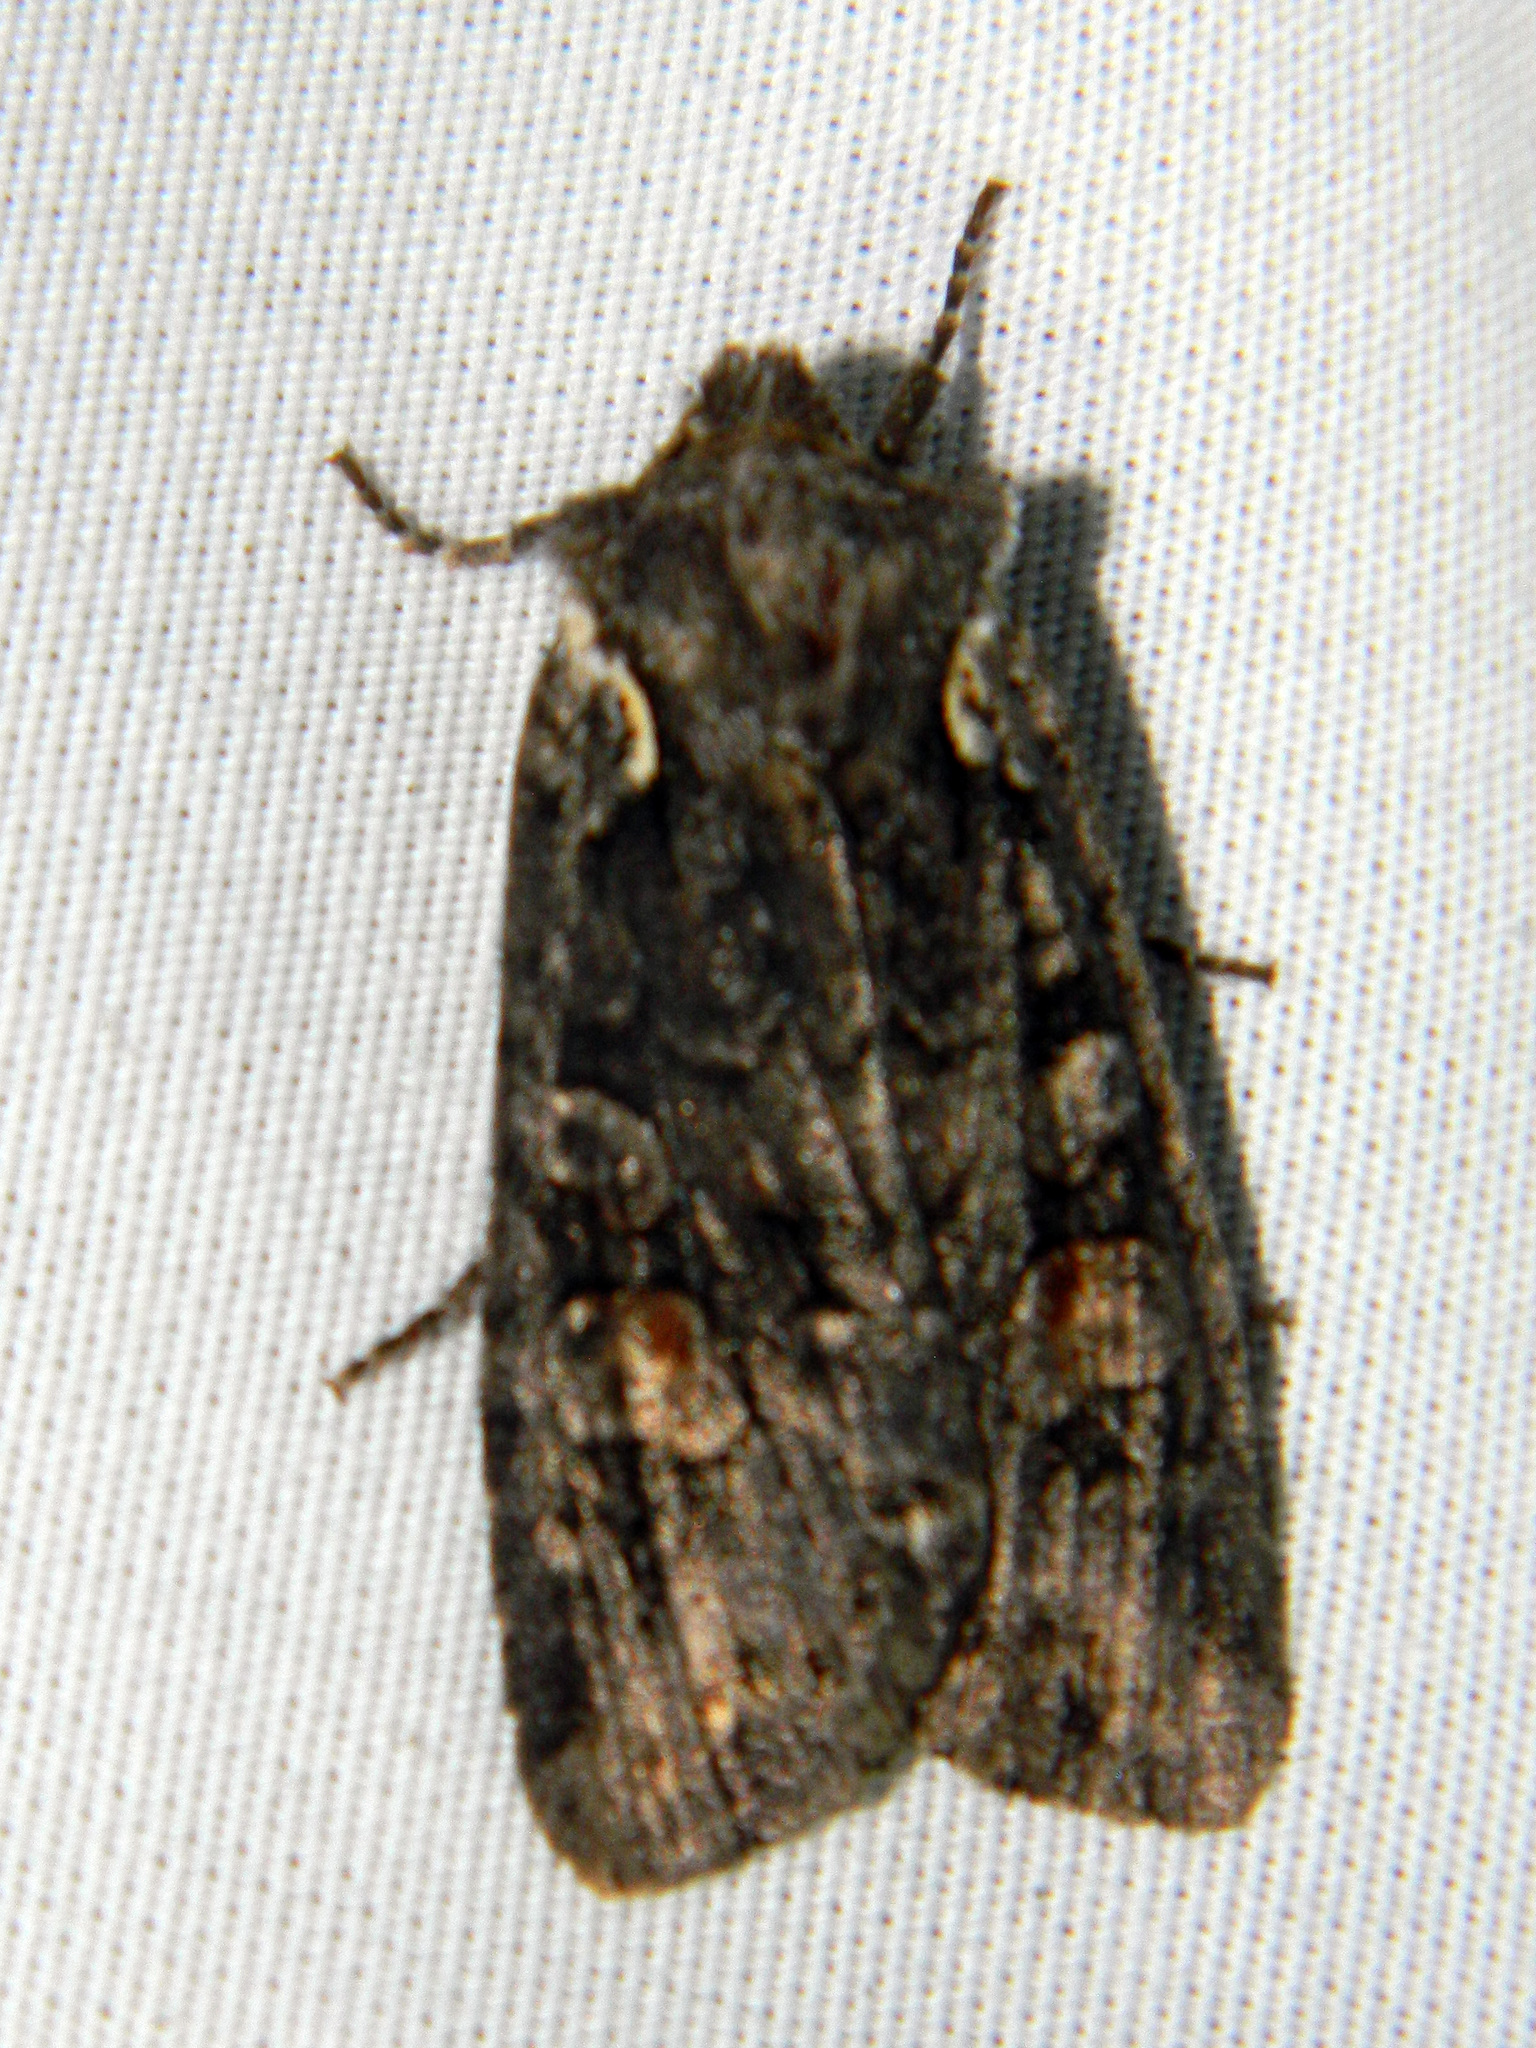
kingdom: Animalia
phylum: Arthropoda
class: Insecta
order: Lepidoptera
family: Noctuidae
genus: Lithophane
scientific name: Lithophane pexata
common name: Plush-naped pinion moth
